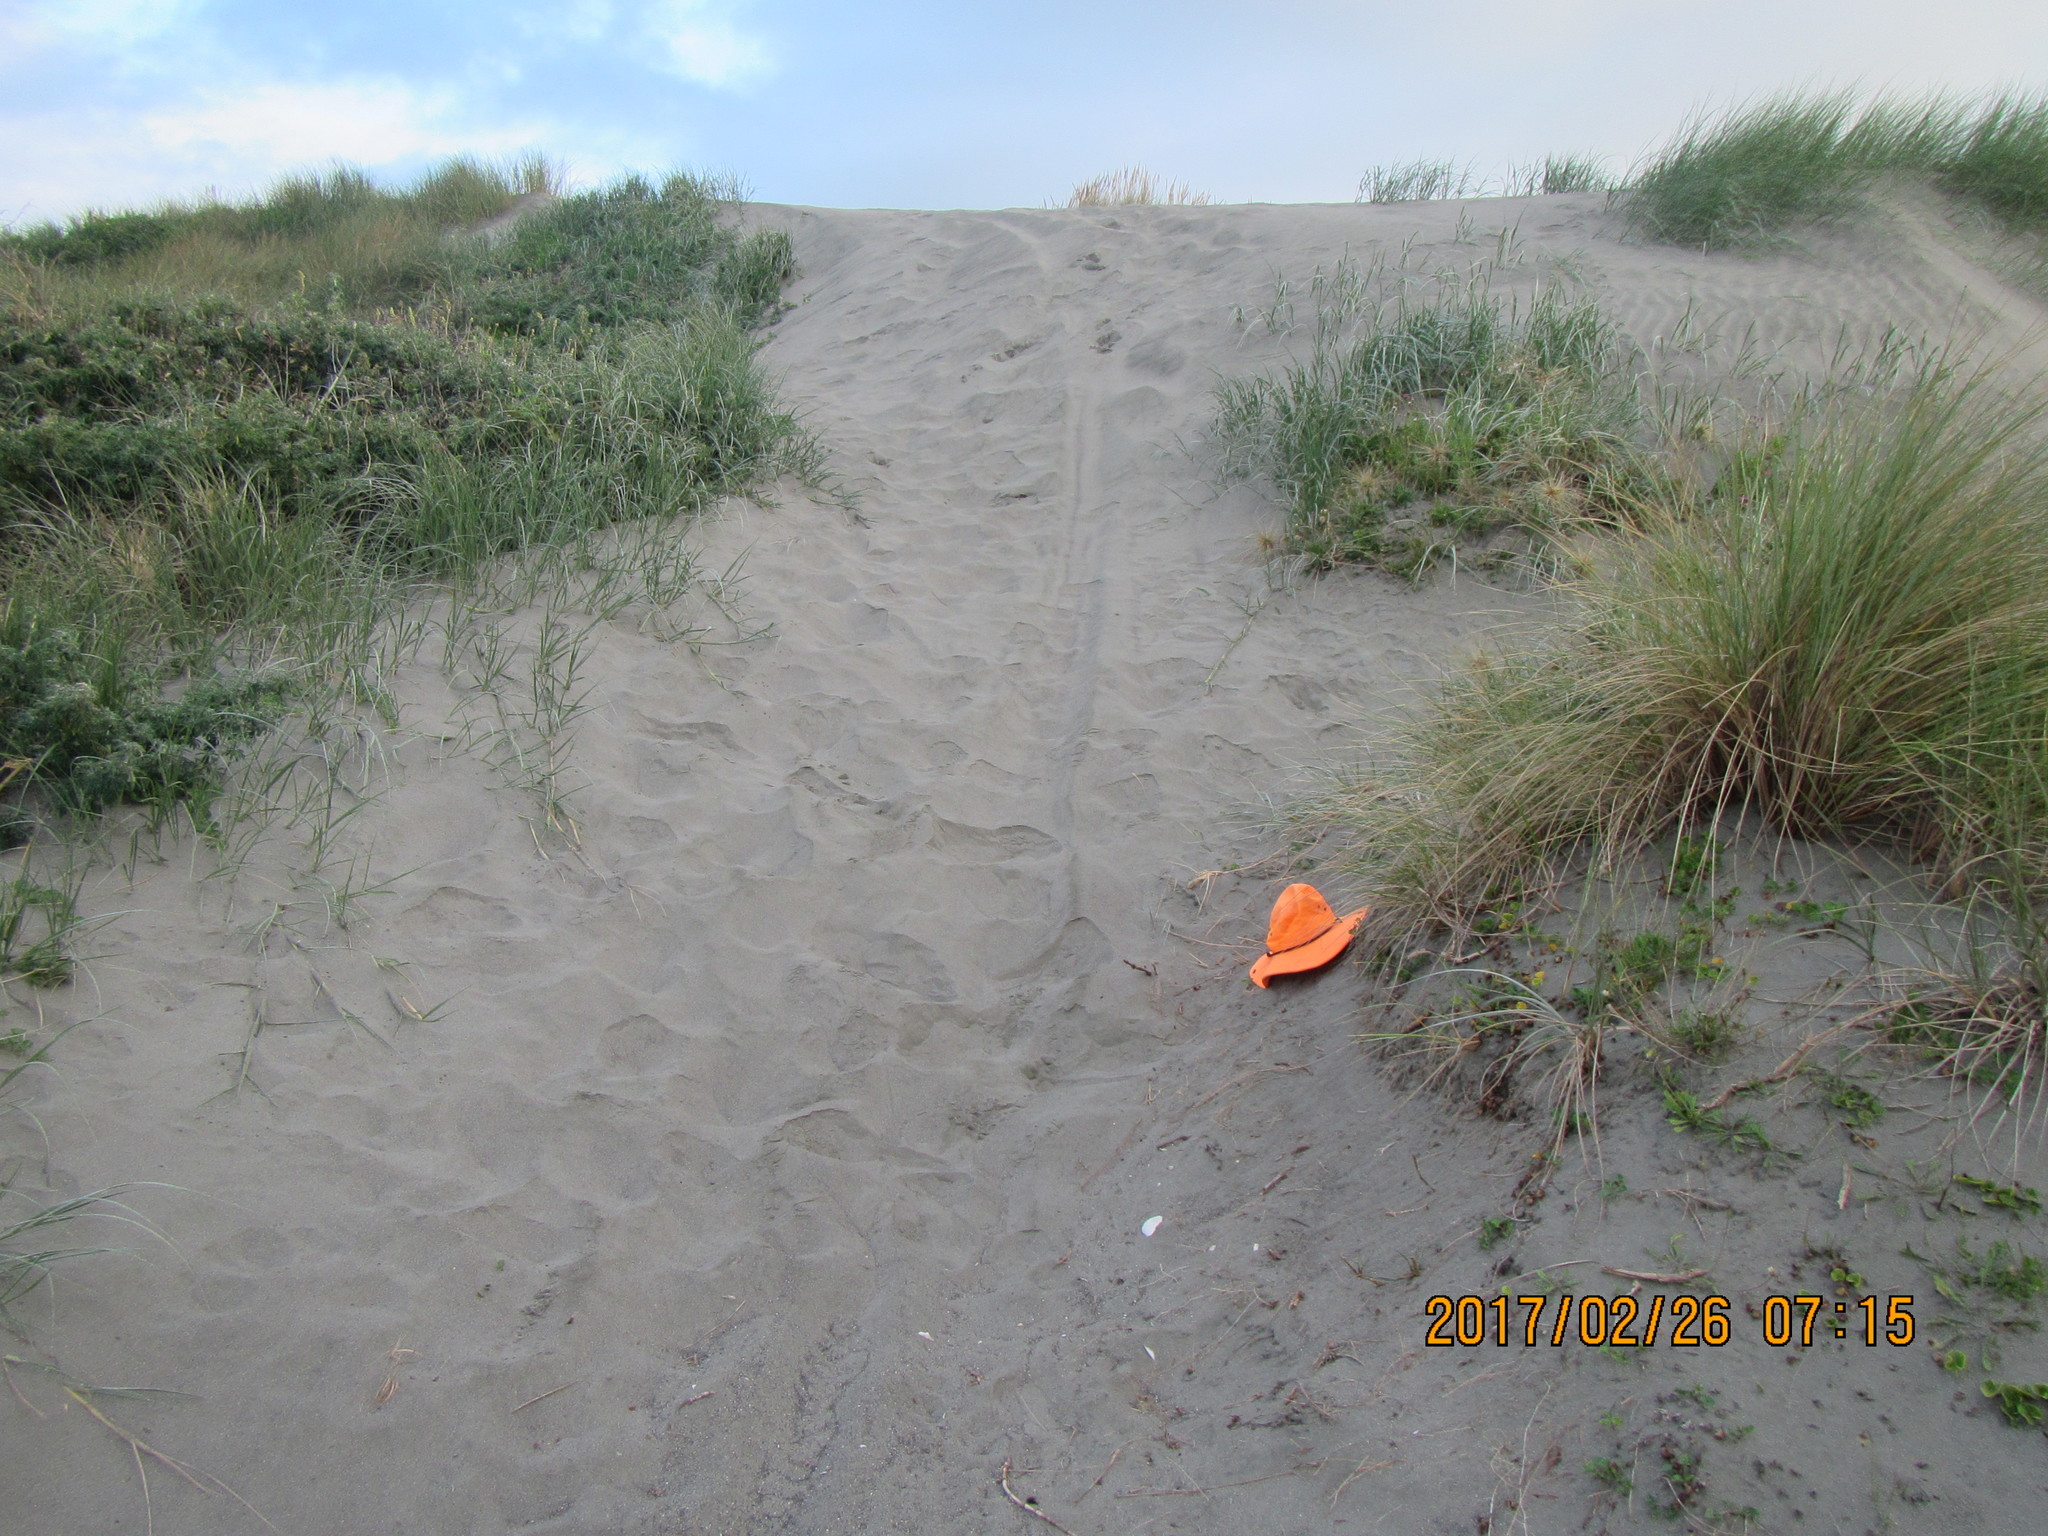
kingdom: Animalia
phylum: Arthropoda
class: Arachnida
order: Araneae
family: Lycosidae
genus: Anoteropsis
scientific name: Anoteropsis litoralis
